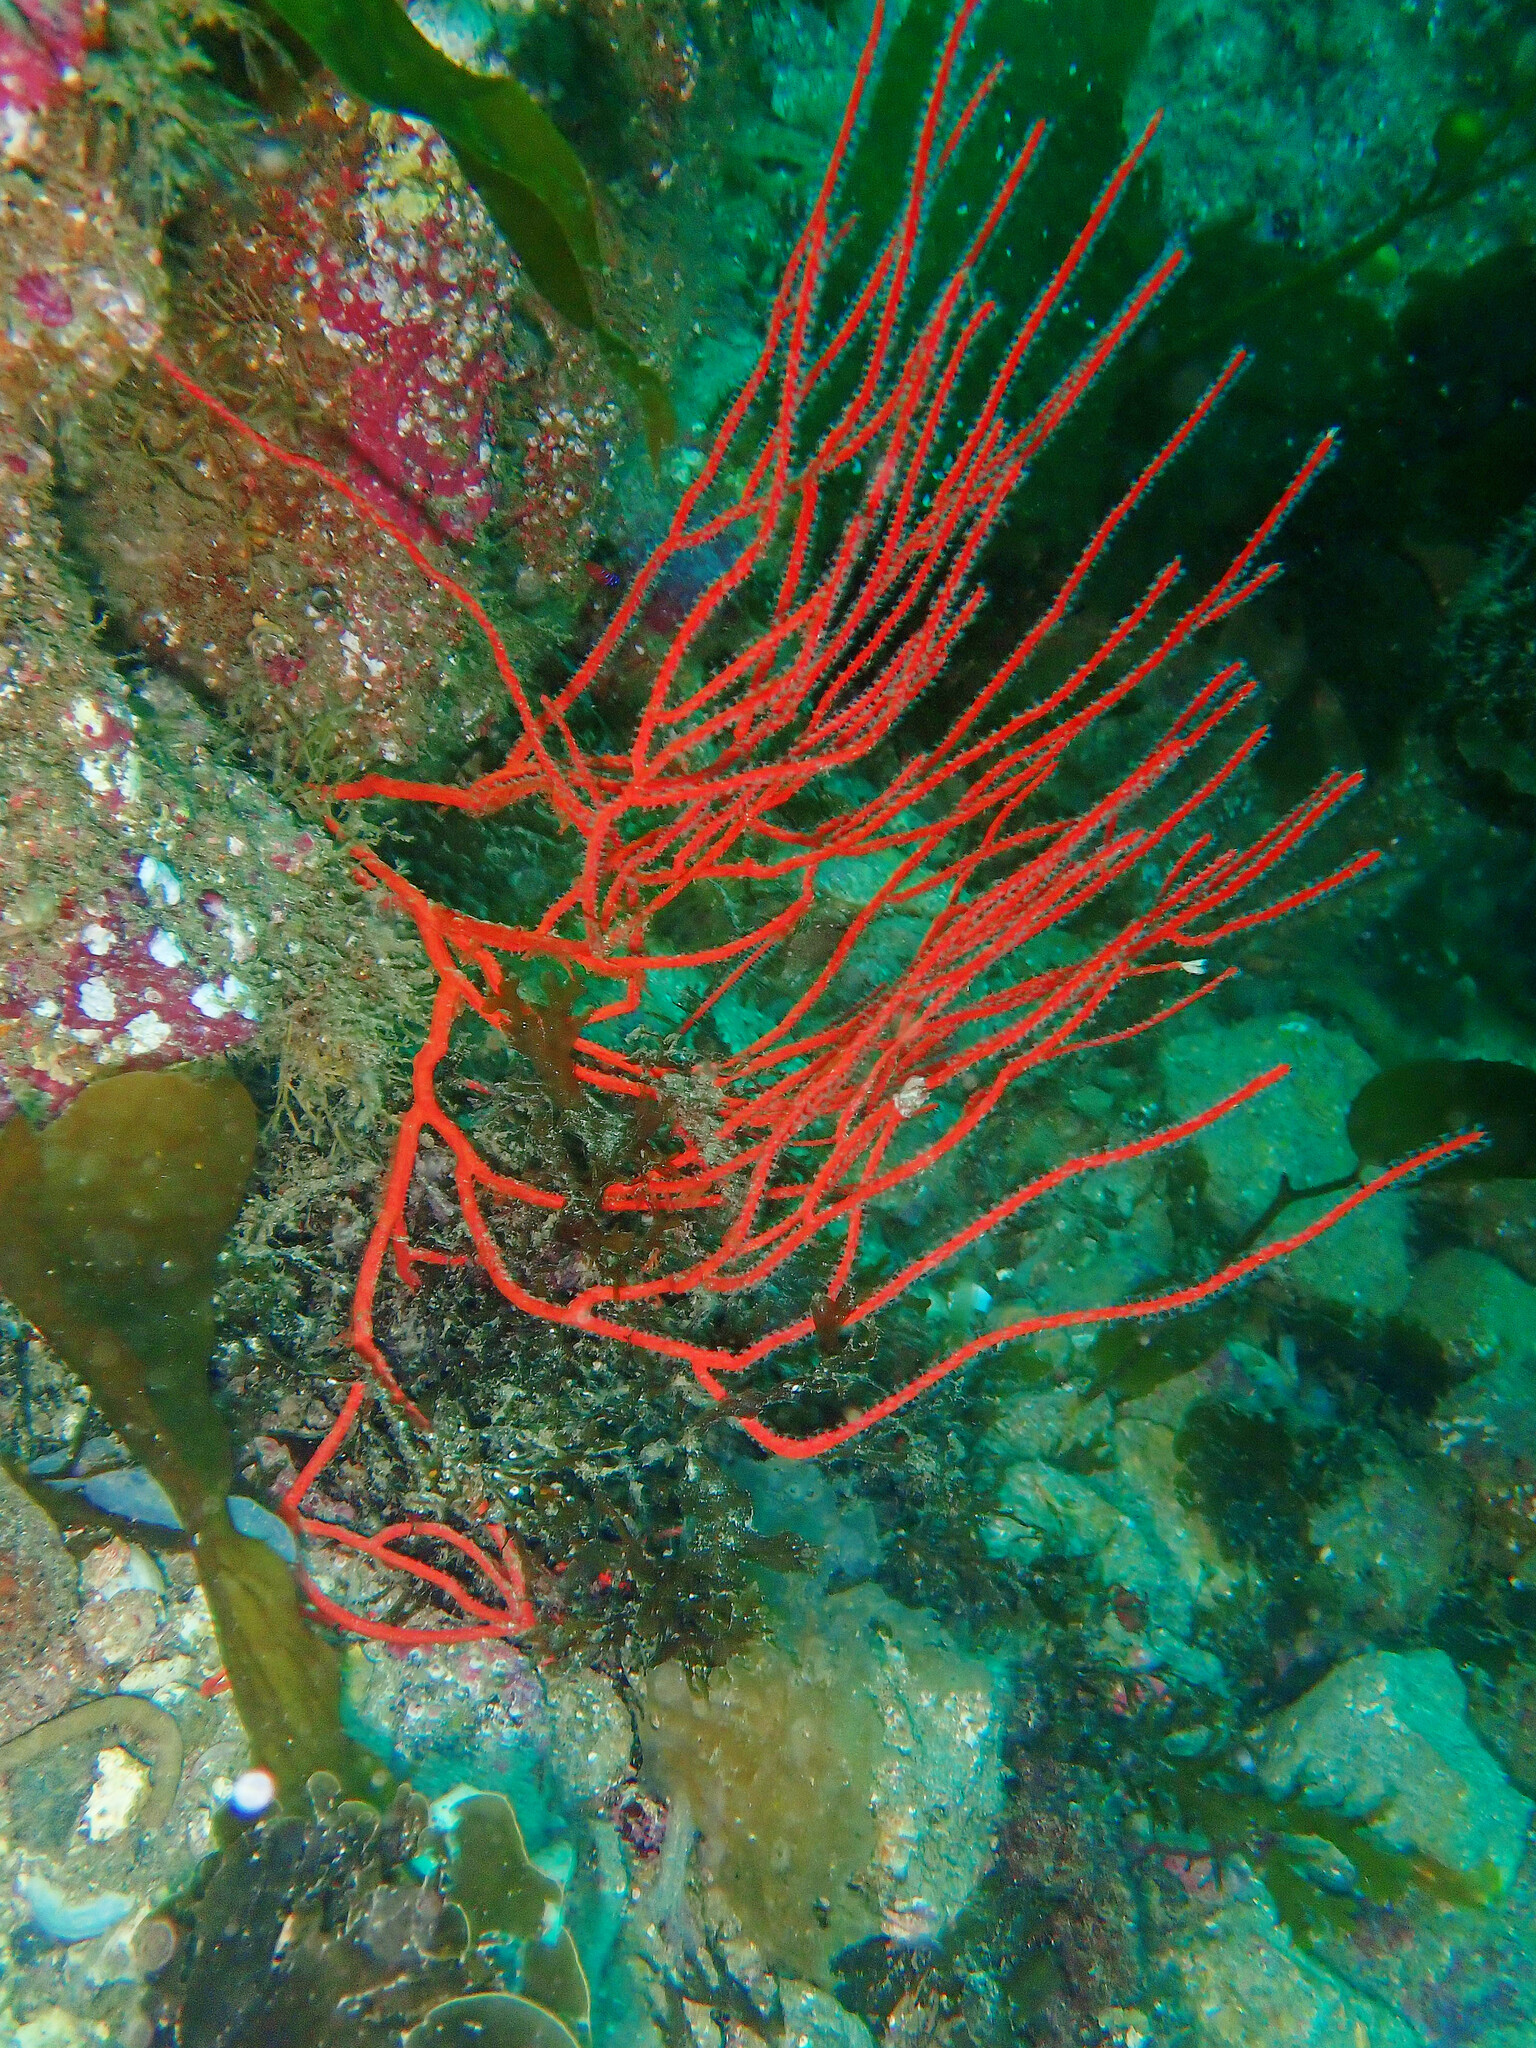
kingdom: Animalia
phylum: Cnidaria
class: Anthozoa
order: Malacalcyonacea
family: Gorgoniidae
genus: Leptogorgia
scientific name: Leptogorgia chilensis
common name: Carmine sea spray
